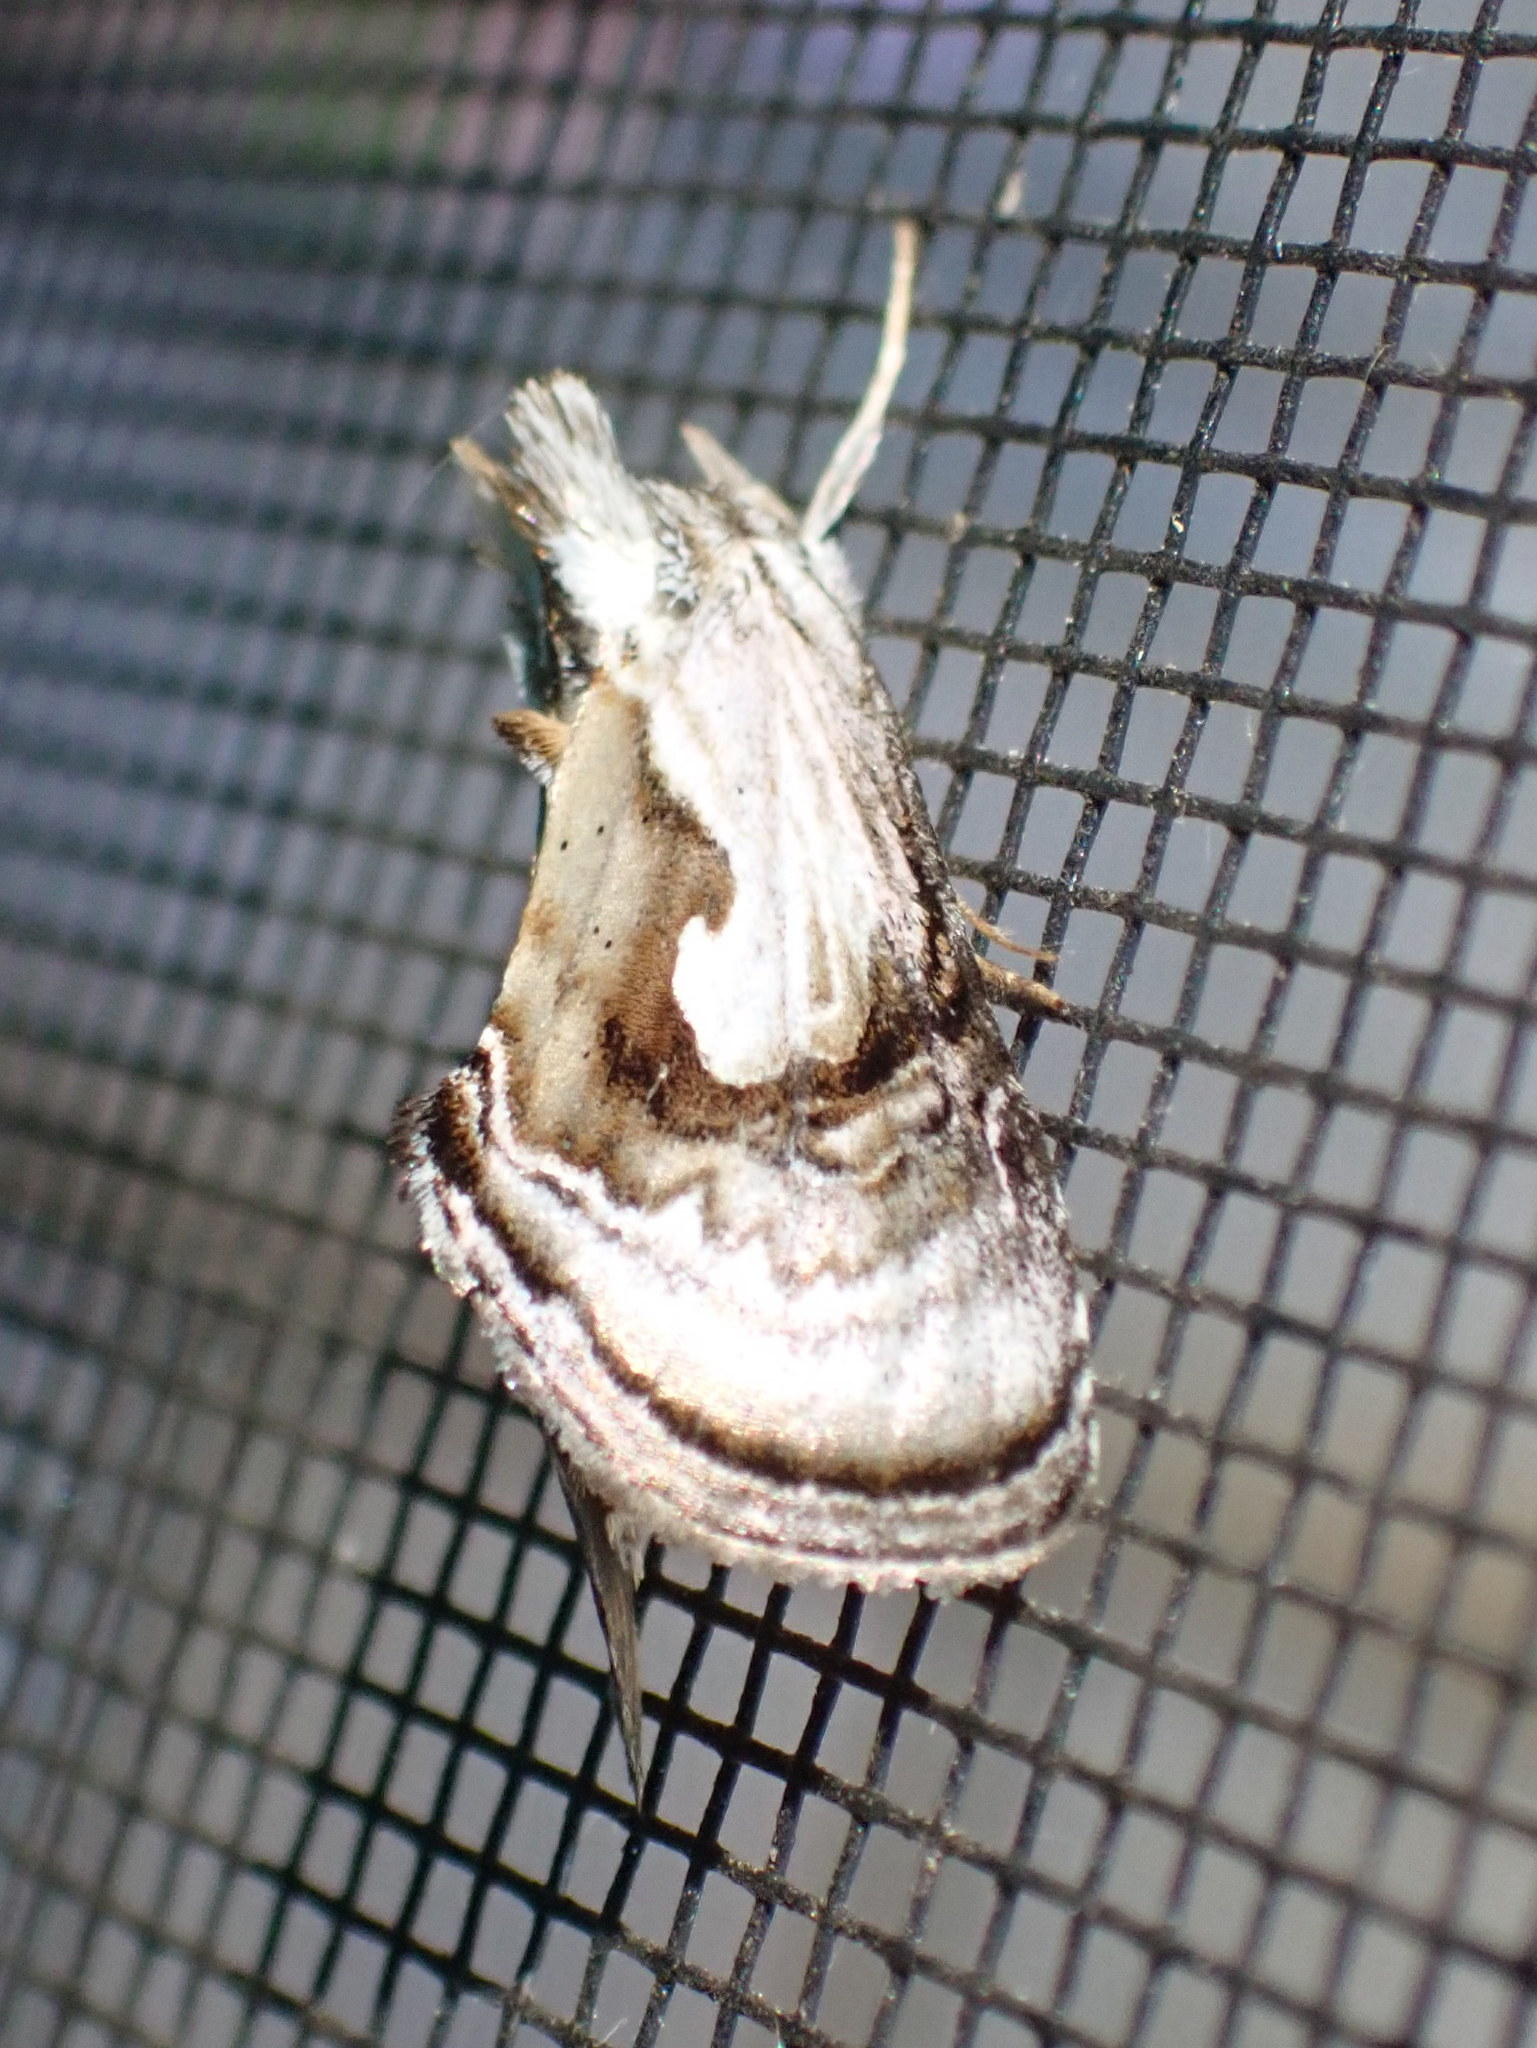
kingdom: Animalia
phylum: Arthropoda
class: Insecta
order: Lepidoptera
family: Noctuidae
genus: Chrysanympha
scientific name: Chrysanympha formosa
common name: Formosa looper moth
